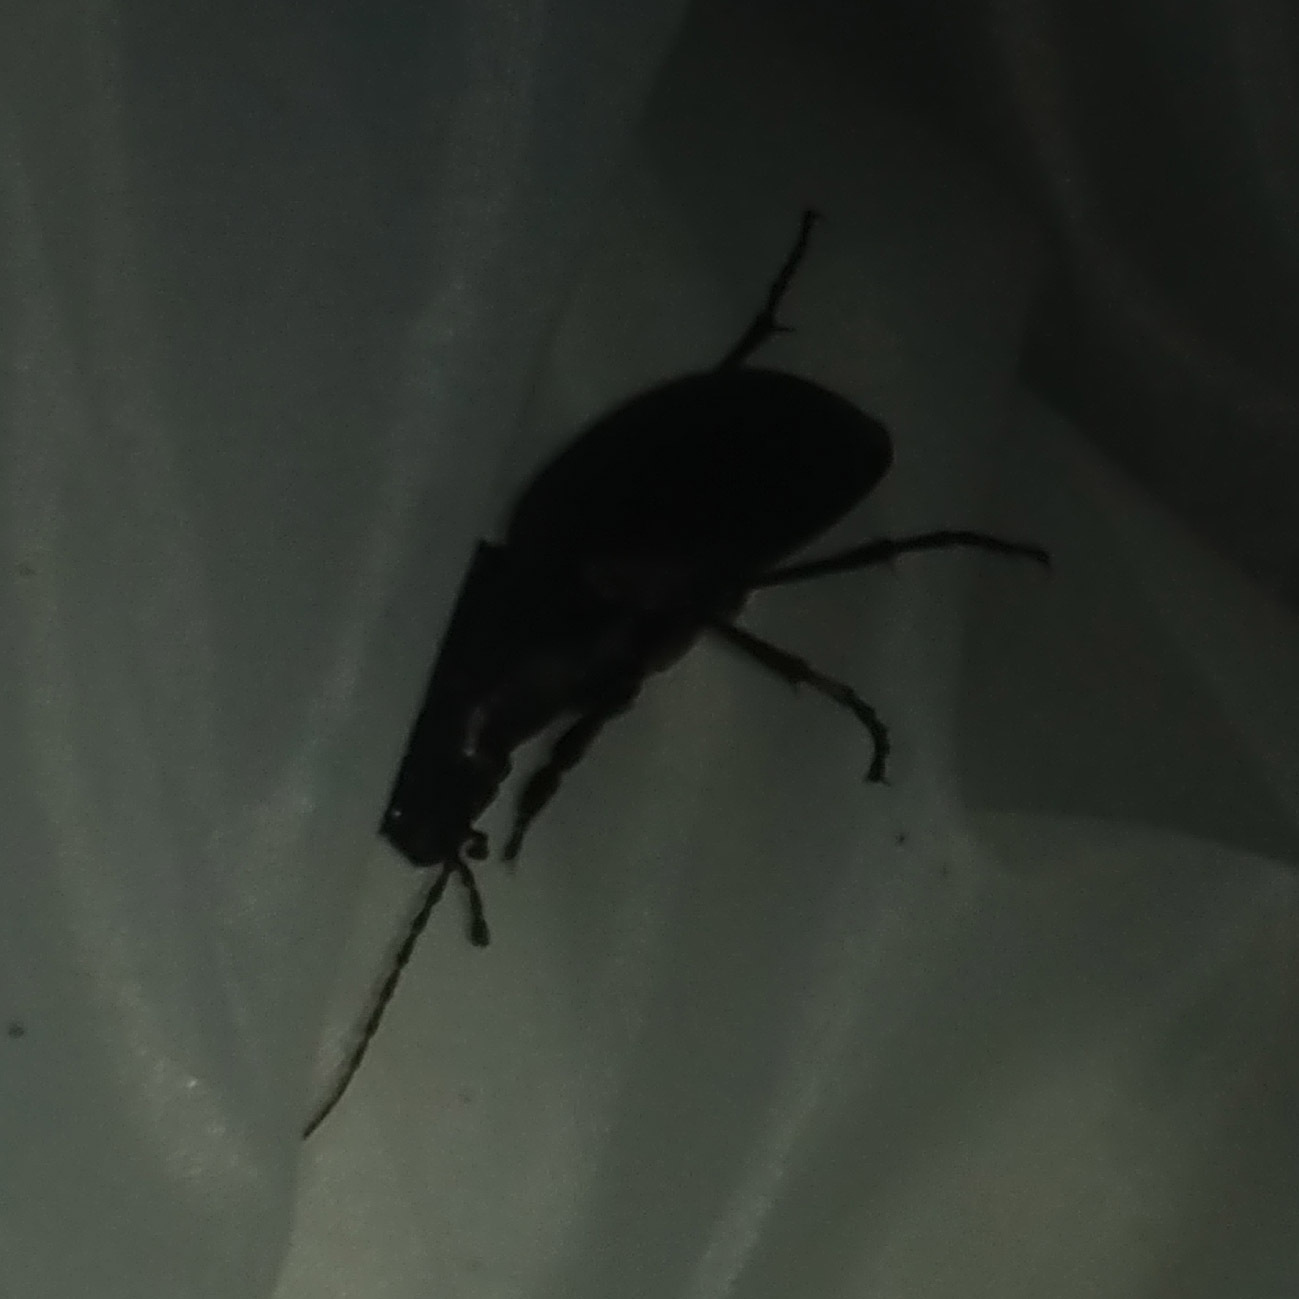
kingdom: Animalia
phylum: Arthropoda
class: Insecta
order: Coleoptera
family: Carabidae
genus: Carabus
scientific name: Carabus coriaceus
